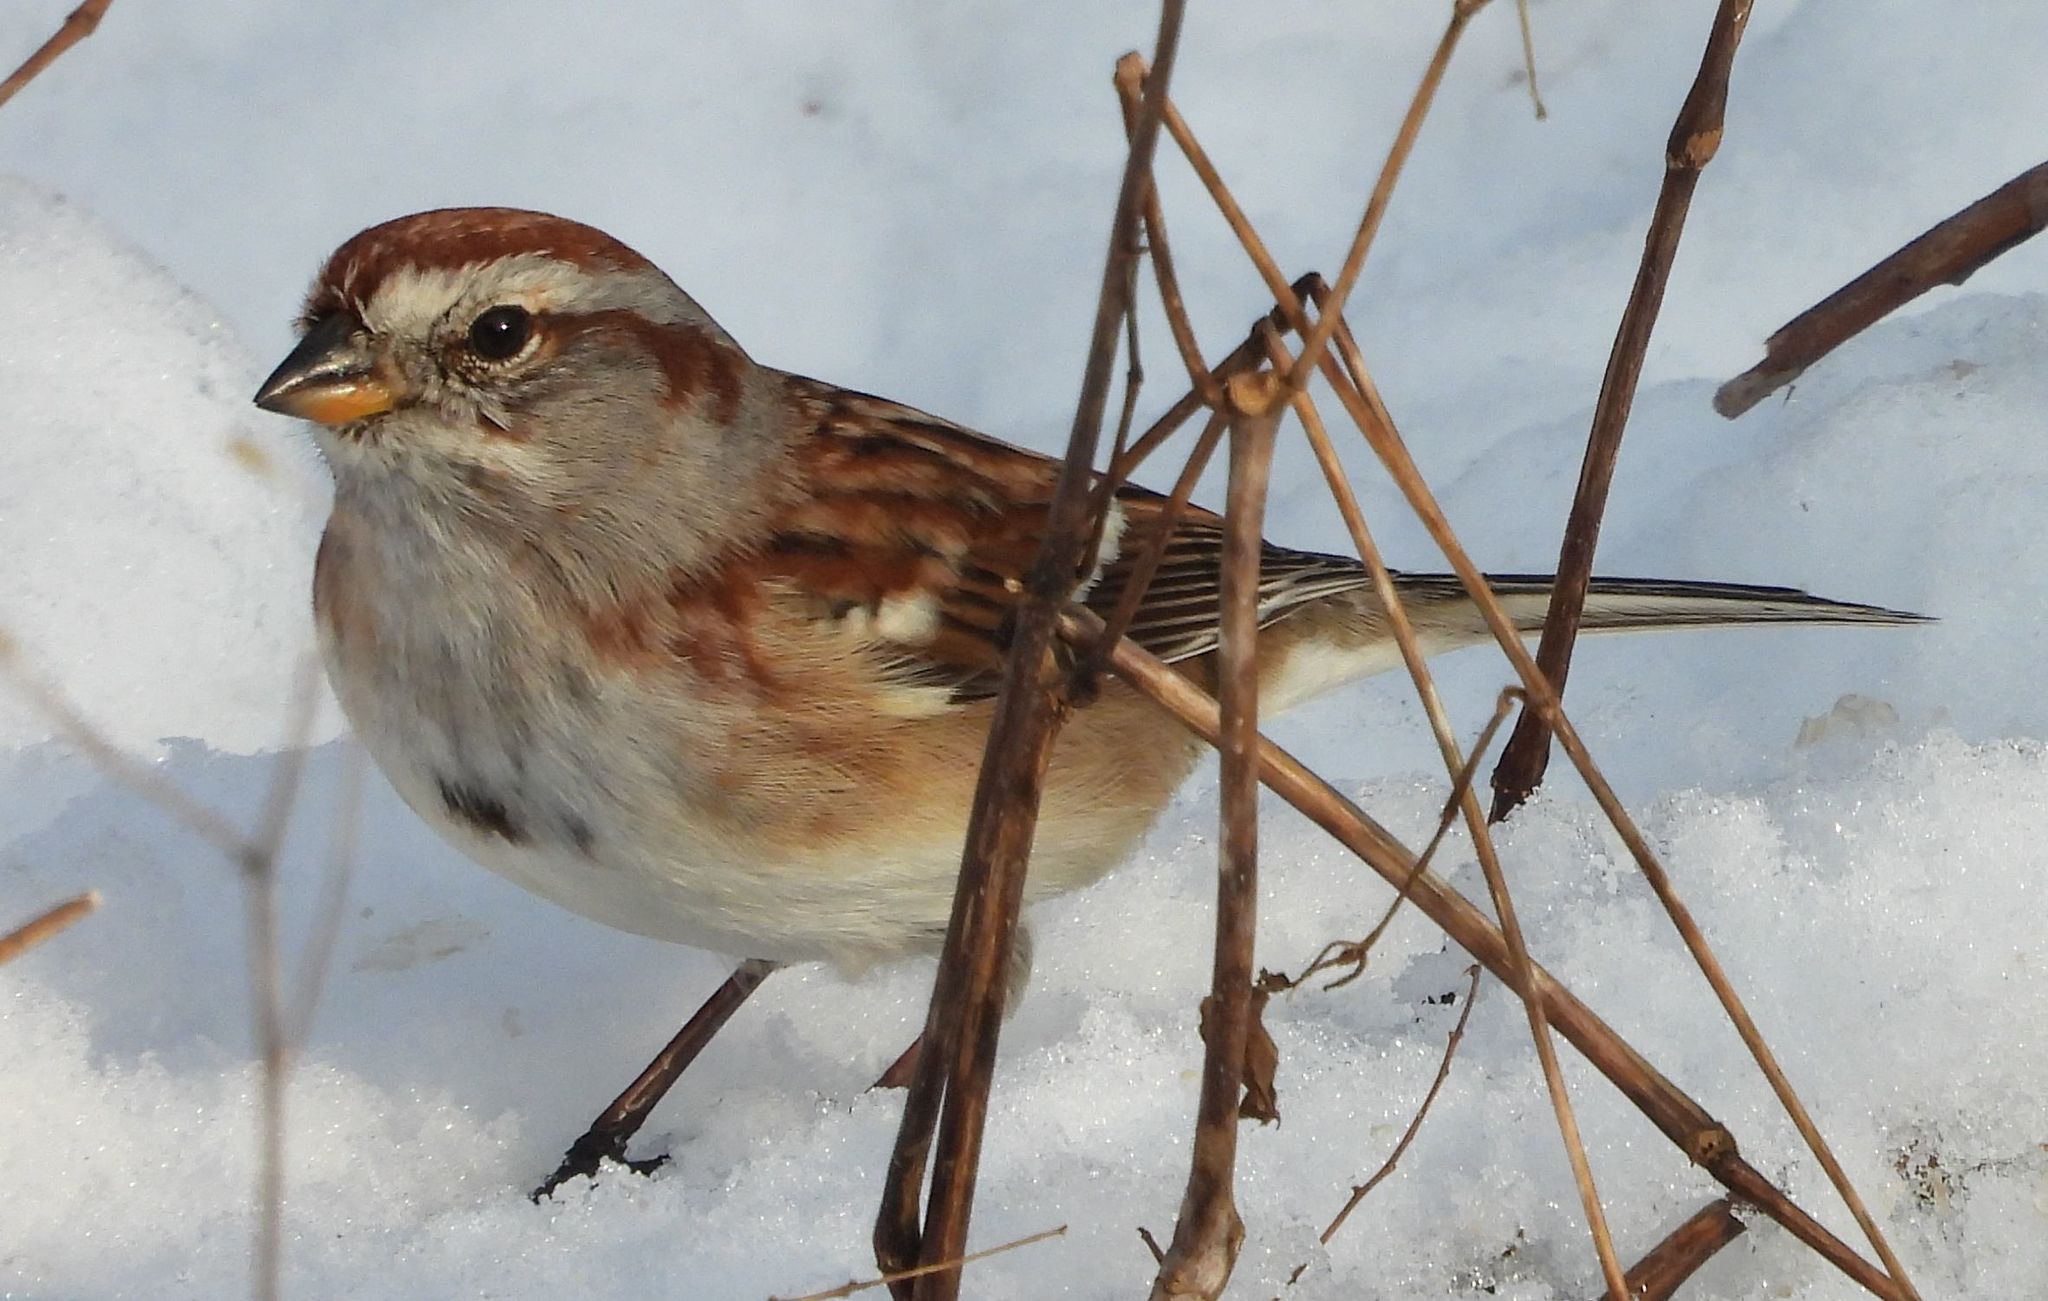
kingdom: Animalia
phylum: Chordata
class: Aves
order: Passeriformes
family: Passerellidae
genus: Spizelloides
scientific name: Spizelloides arborea
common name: American tree sparrow
